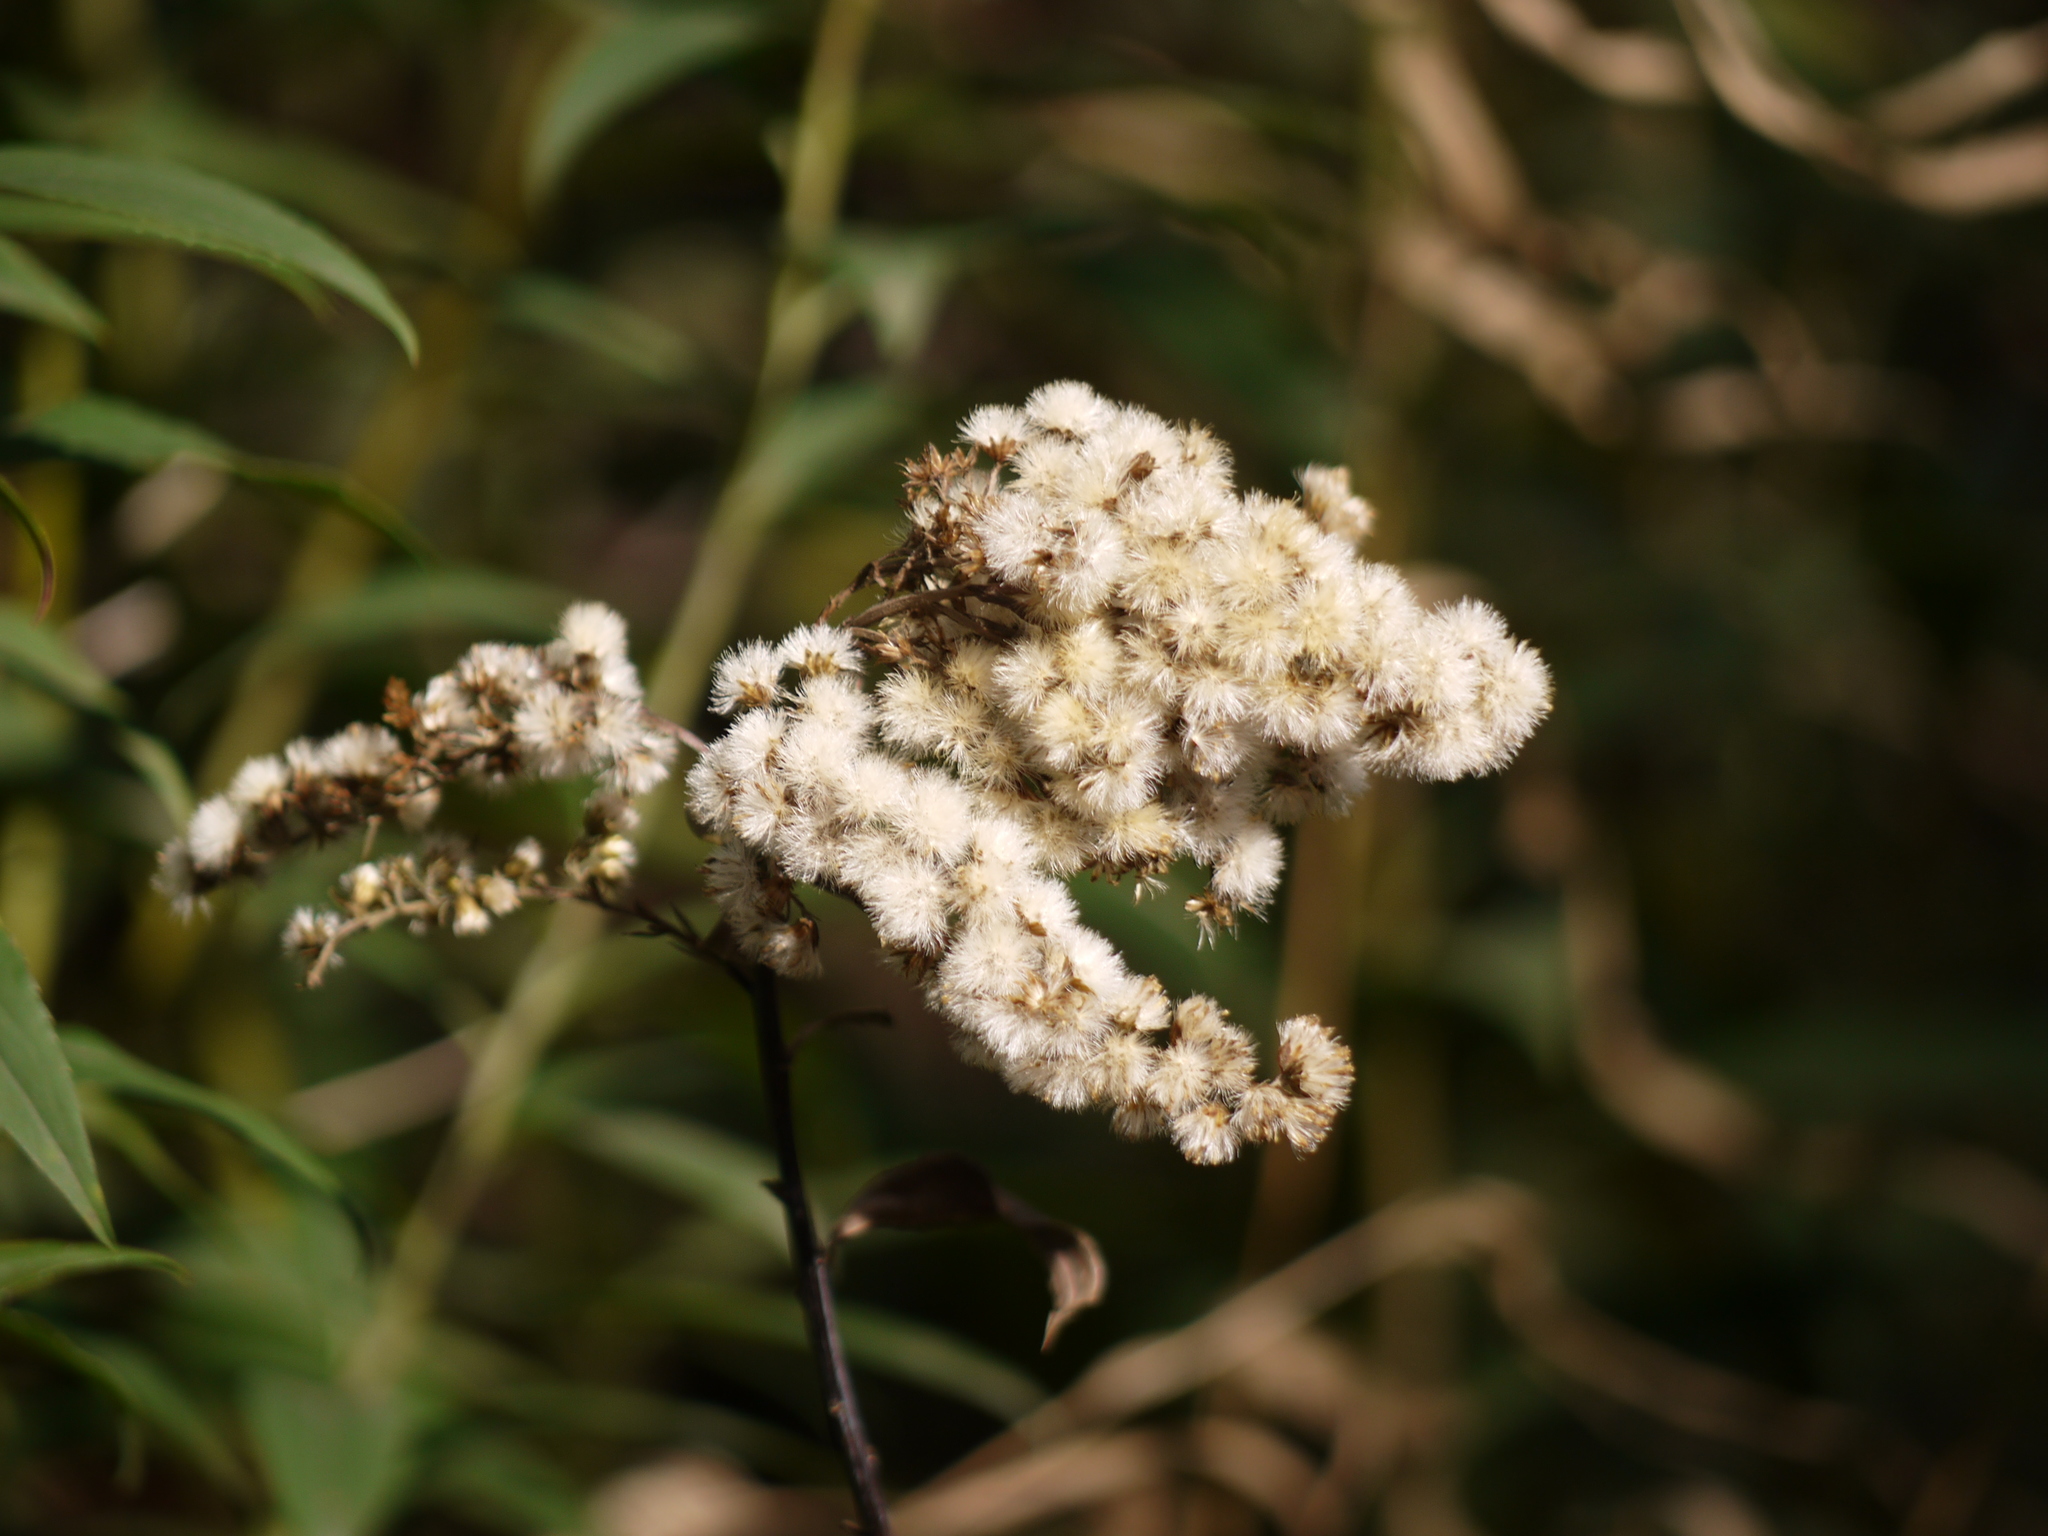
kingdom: Plantae
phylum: Tracheophyta
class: Magnoliopsida
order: Asterales
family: Asteraceae
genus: Solidago
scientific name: Solidago
